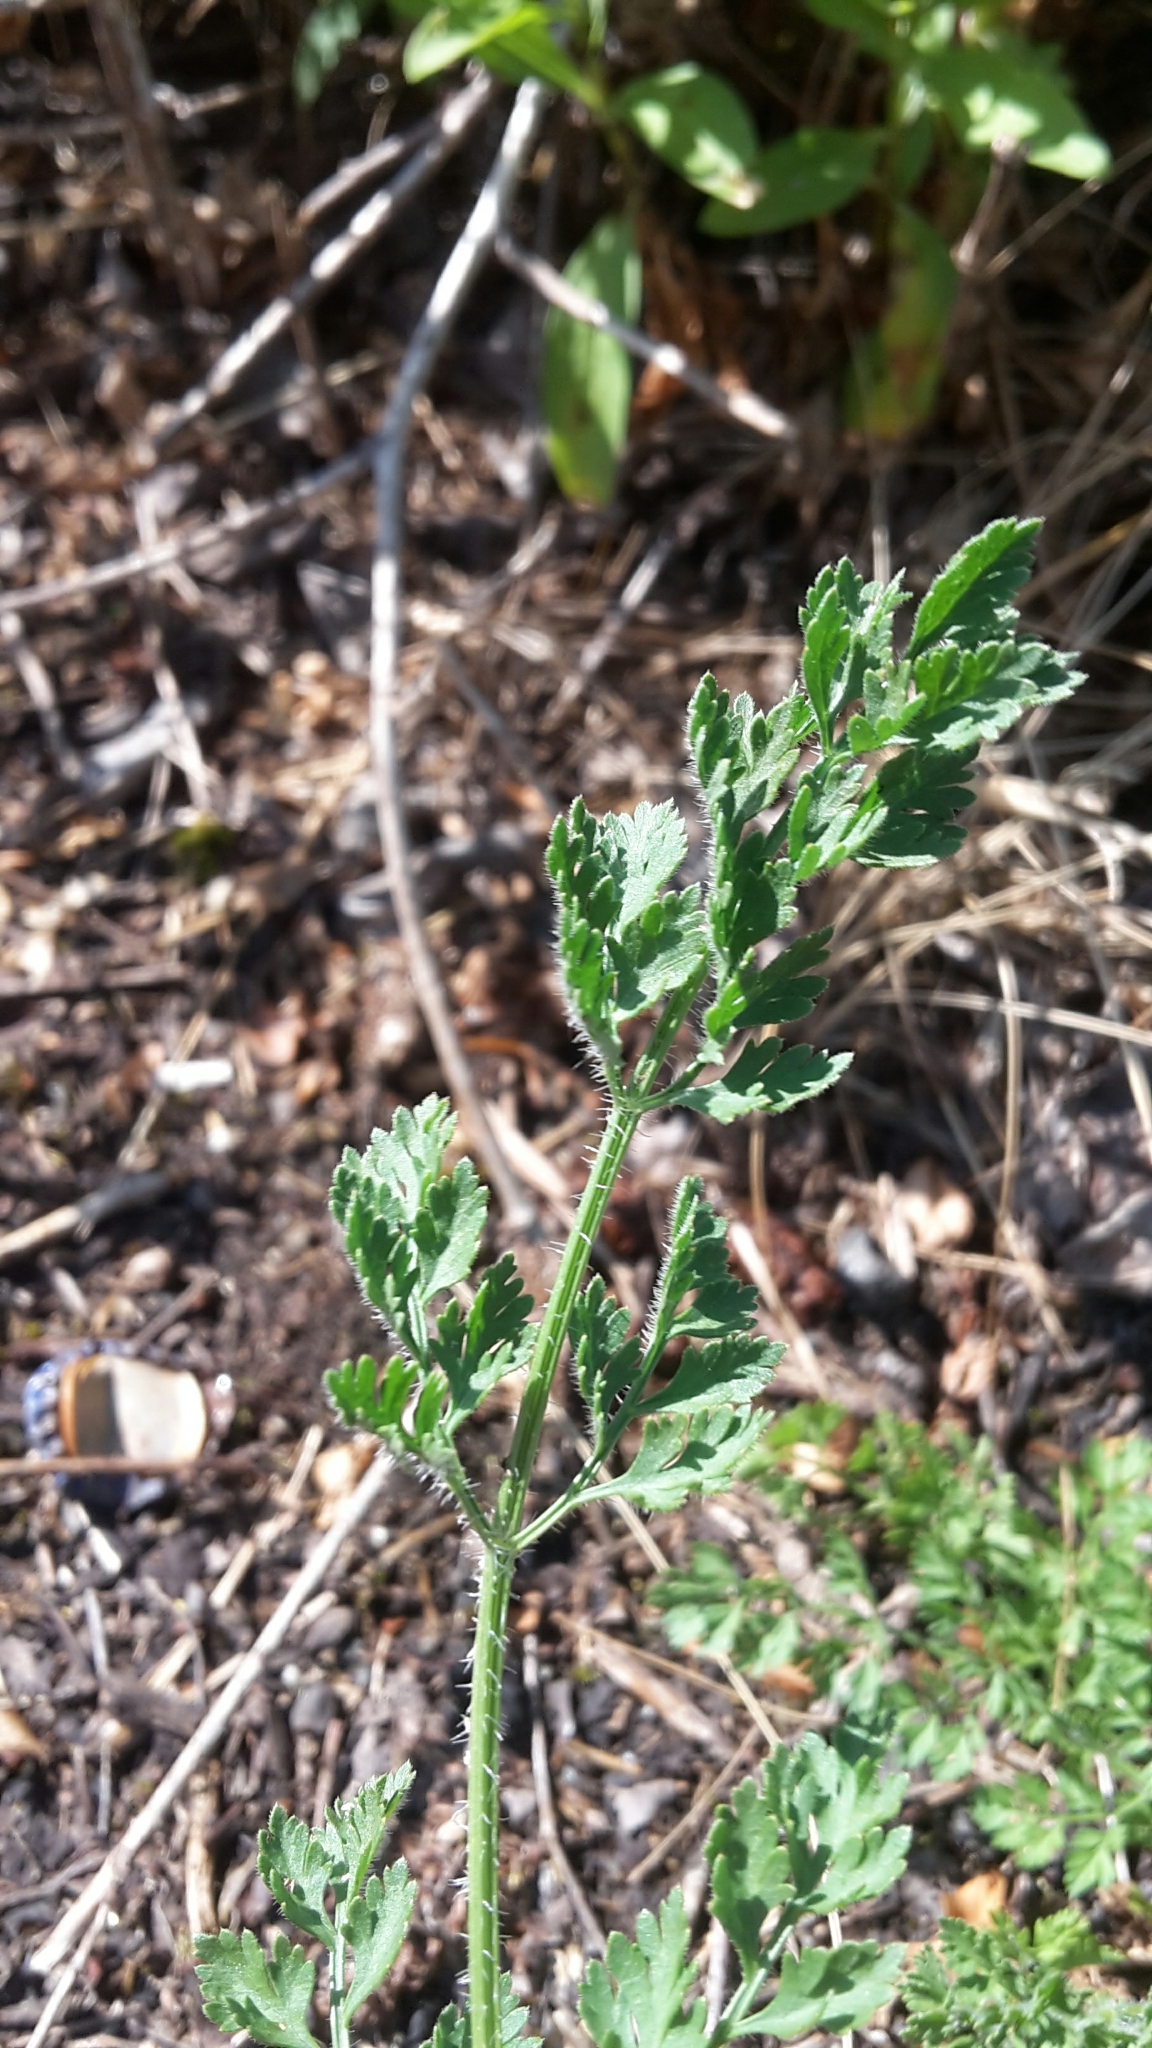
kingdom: Plantae
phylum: Tracheophyta
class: Magnoliopsida
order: Apiales
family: Apiaceae
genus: Daucus
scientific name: Daucus carota
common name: Wild carrot
